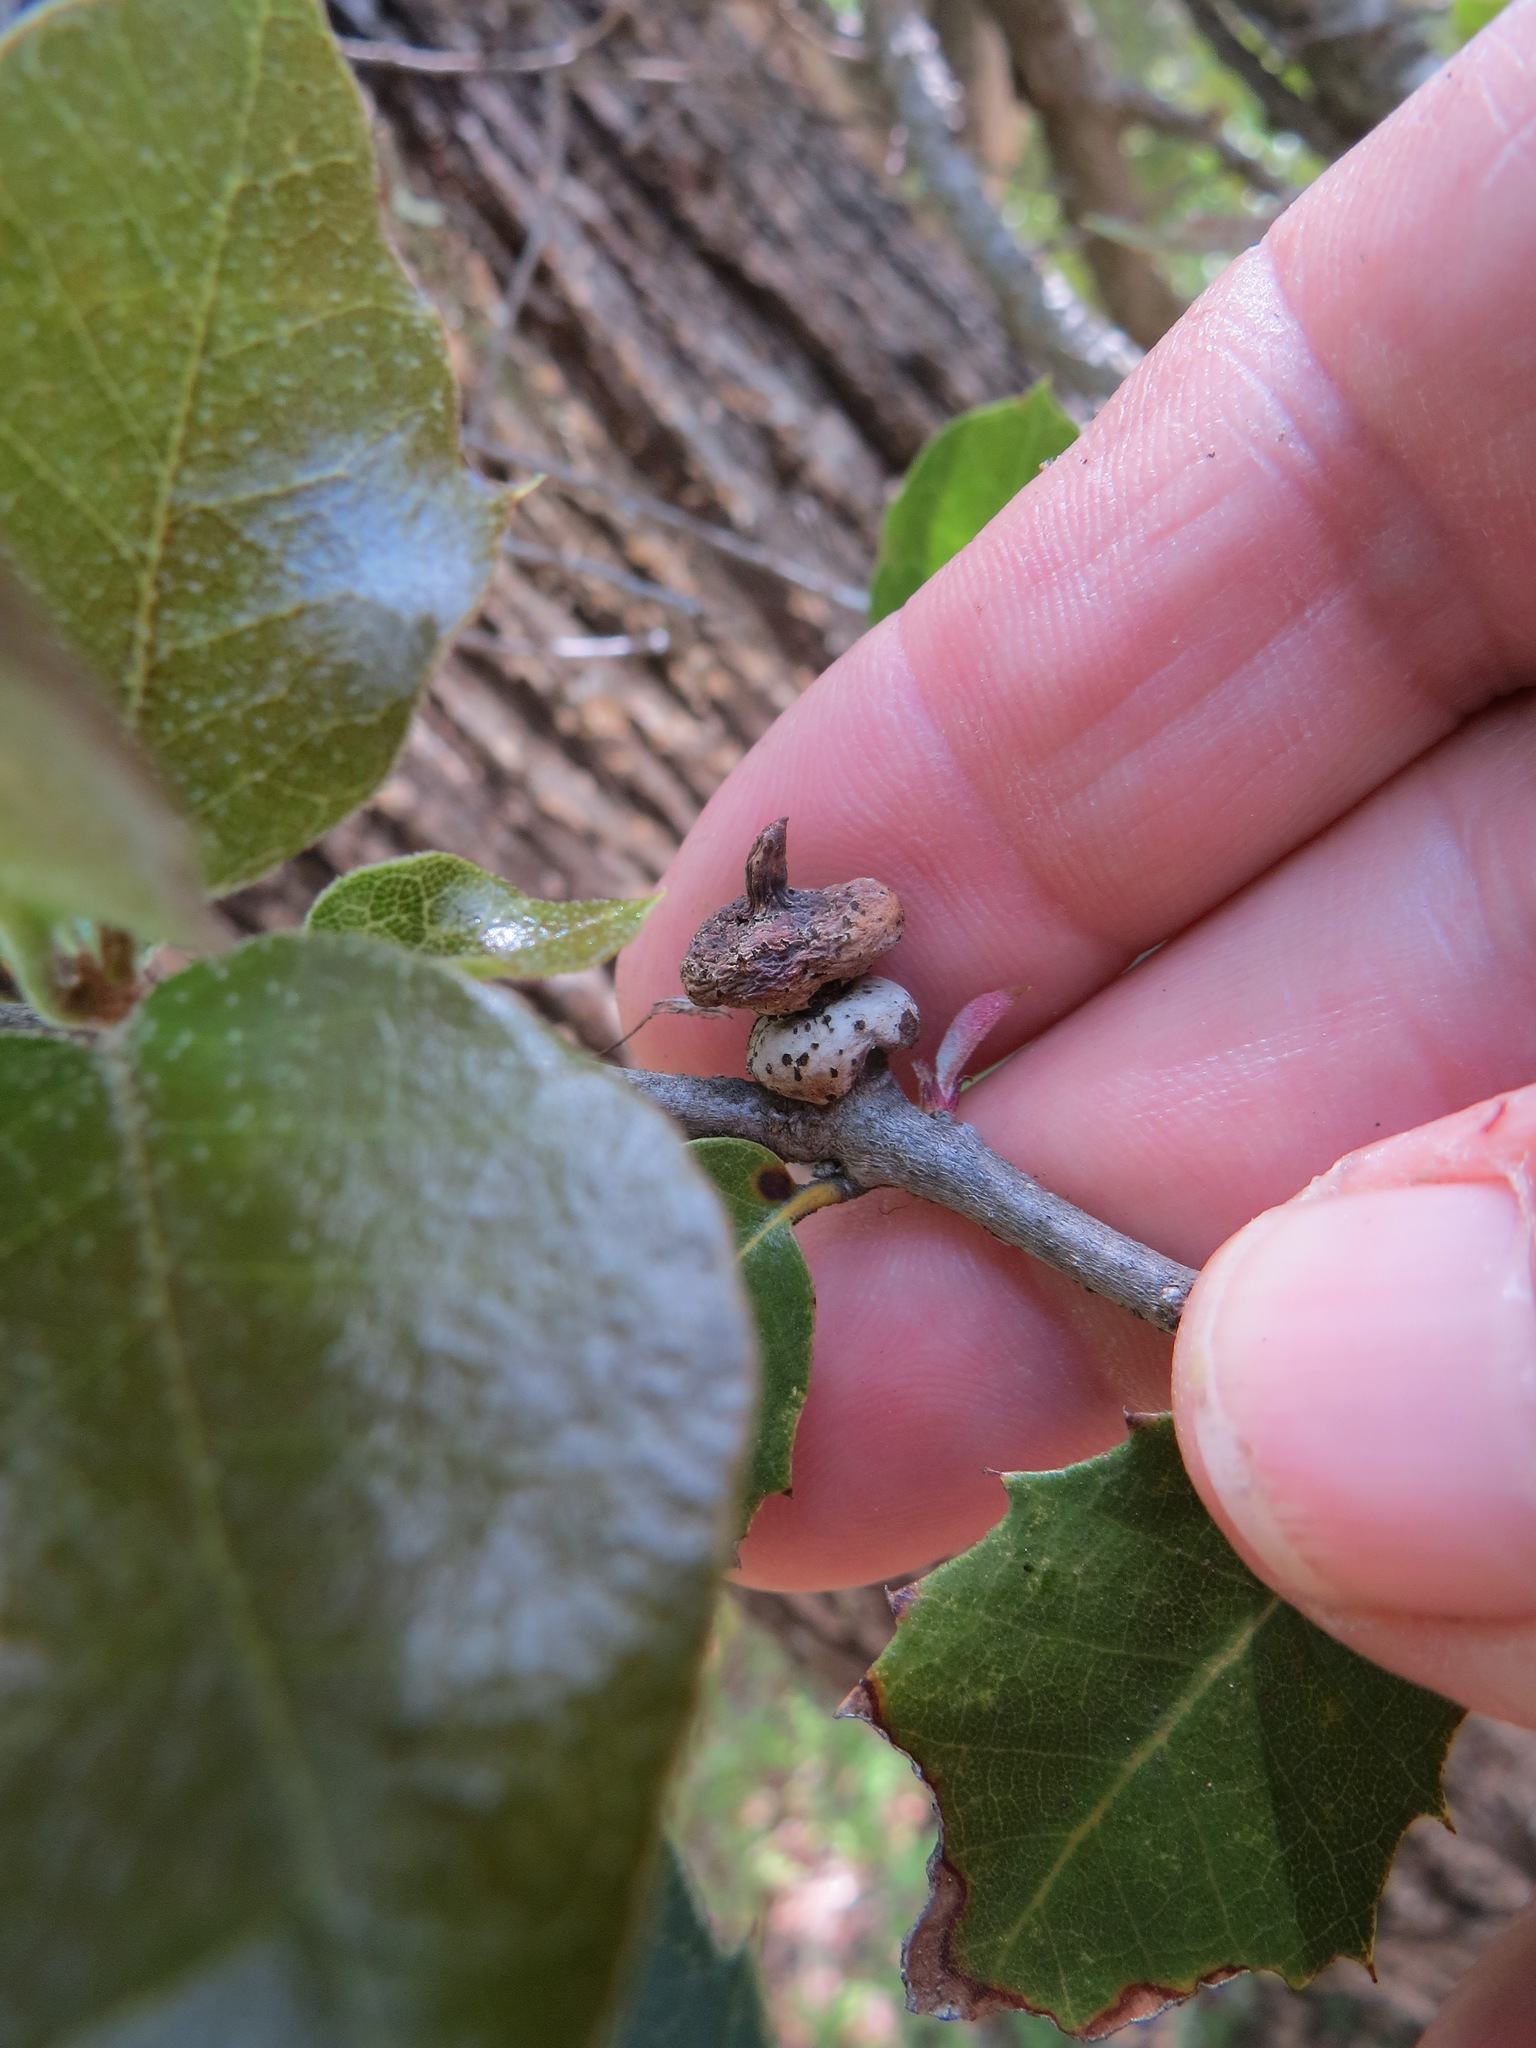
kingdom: Animalia
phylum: Arthropoda
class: Insecta
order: Hymenoptera
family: Cynipidae
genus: Heteroecus
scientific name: Heteroecus
